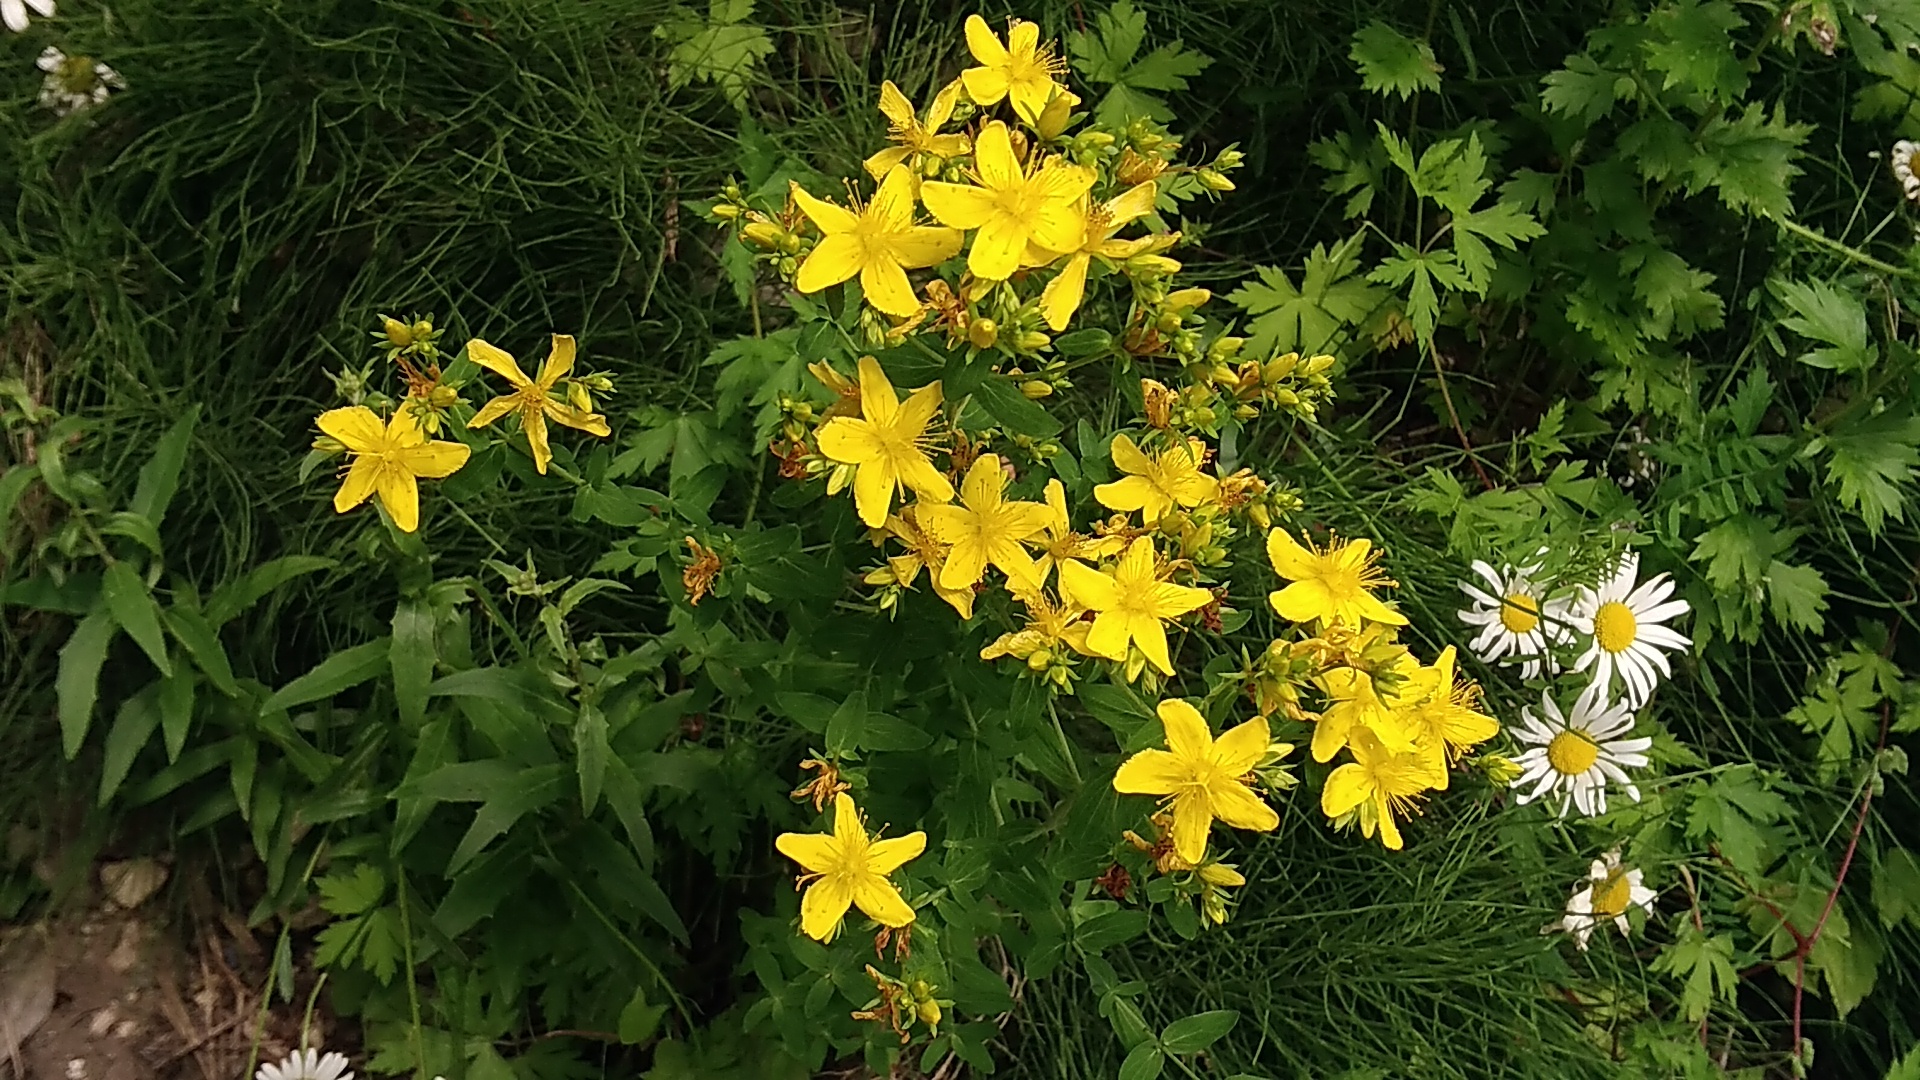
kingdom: Plantae
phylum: Tracheophyta
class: Magnoliopsida
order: Malpighiales
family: Hypericaceae
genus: Hypericum
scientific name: Hypericum perforatum
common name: Common st. johnswort
